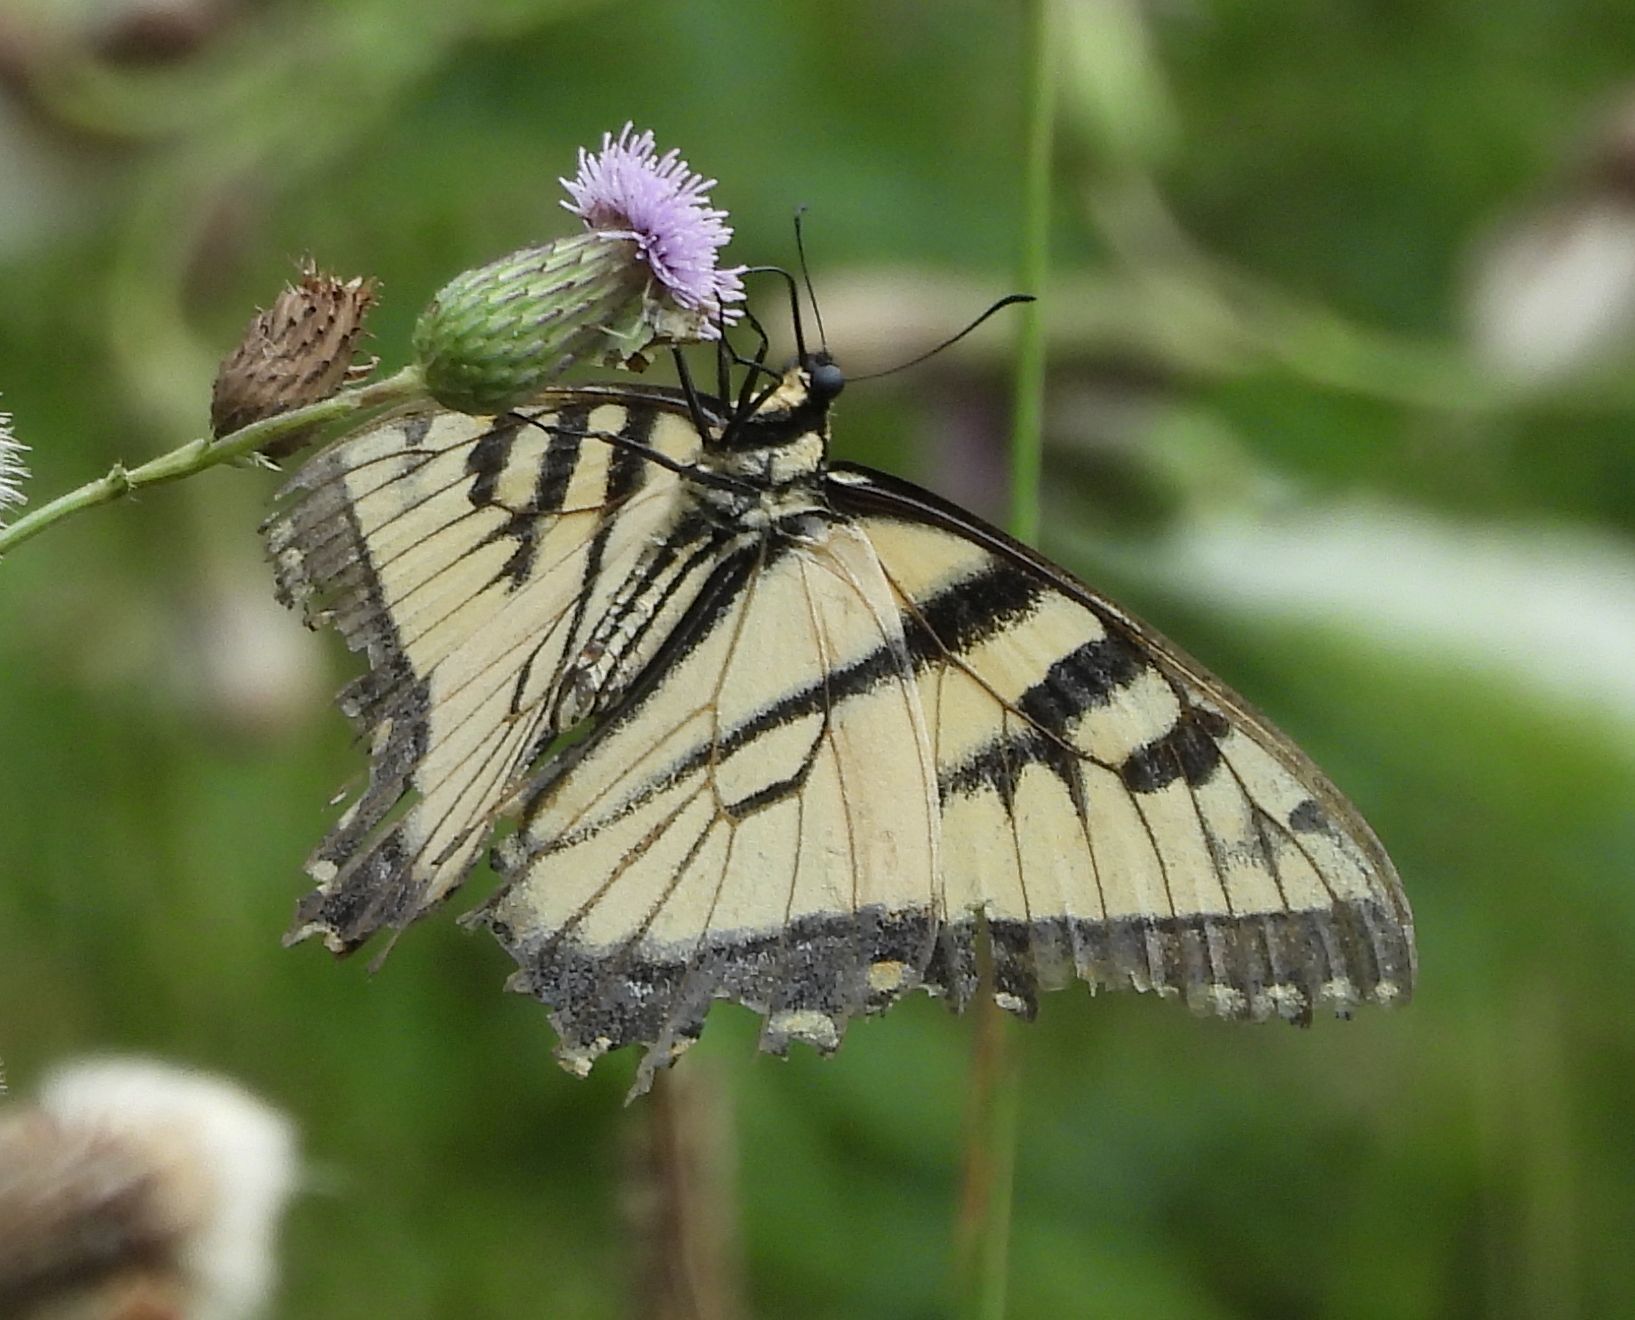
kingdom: Animalia
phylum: Arthropoda
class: Insecta
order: Lepidoptera
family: Papilionidae
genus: Papilio
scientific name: Papilio
